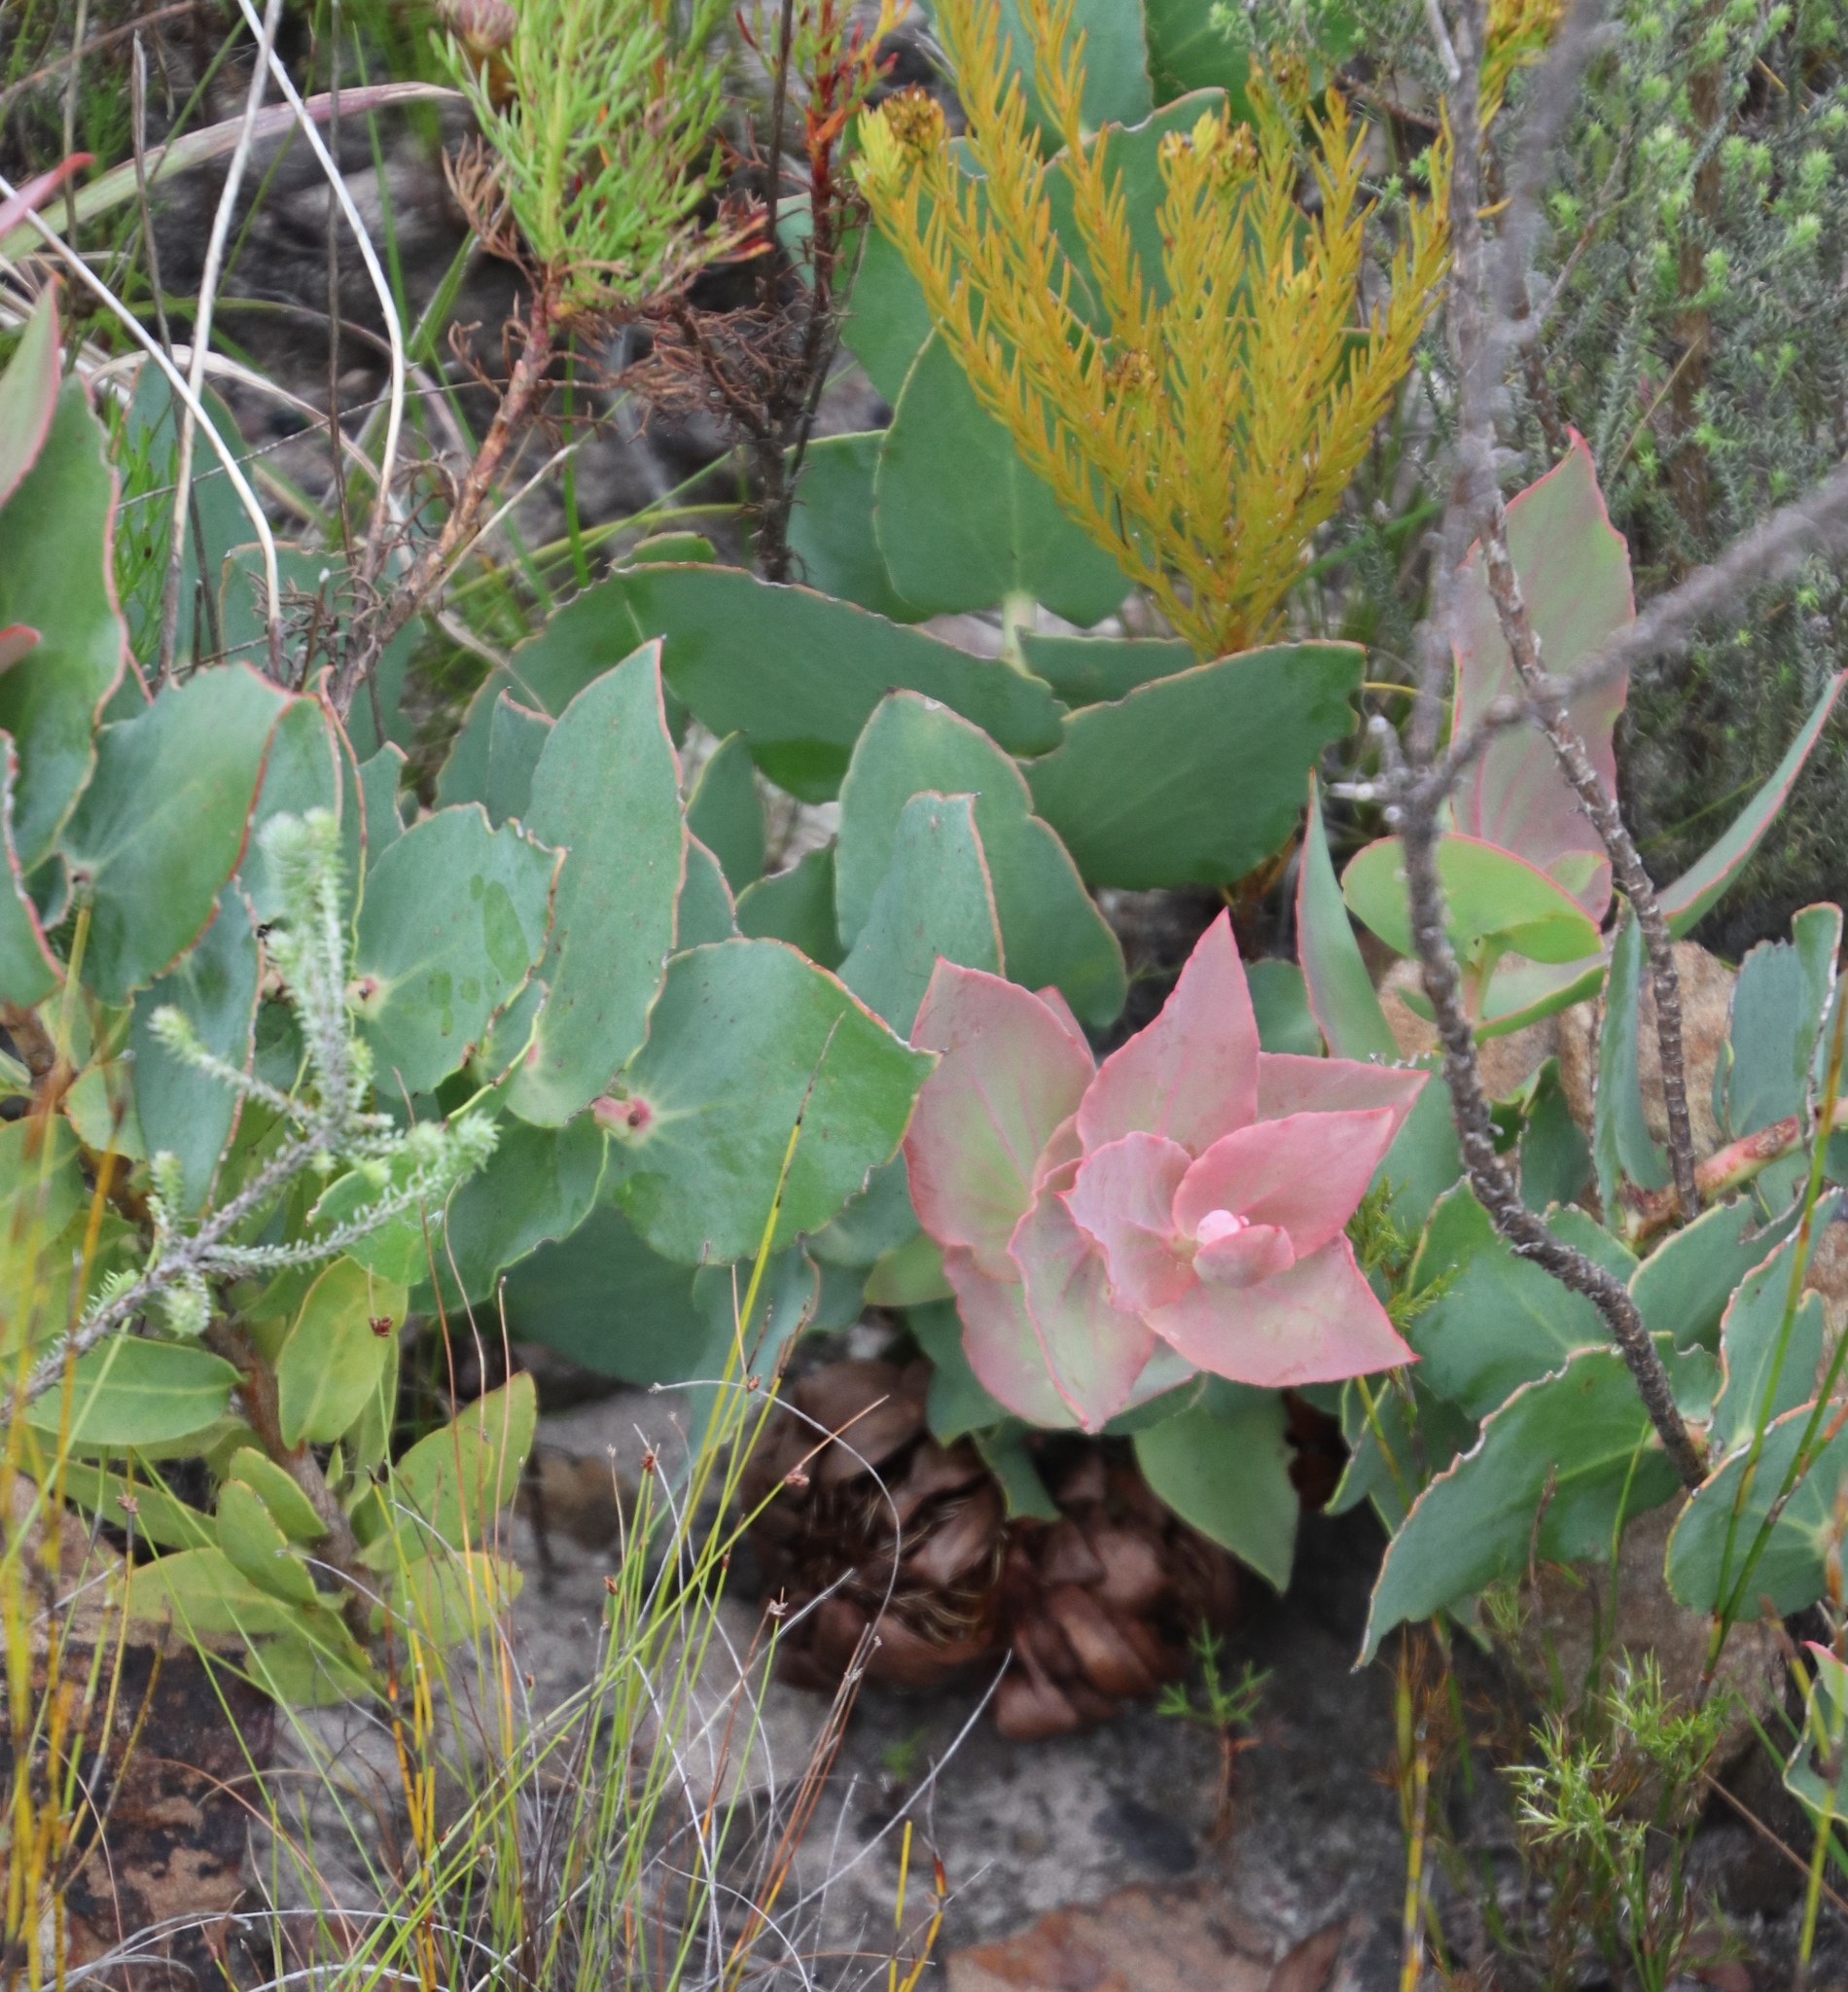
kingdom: Plantae
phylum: Tracheophyta
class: Magnoliopsida
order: Proteales
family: Proteaceae
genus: Protea
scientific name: Protea amplexicaulis
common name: Clasping-leaf sugarbush
